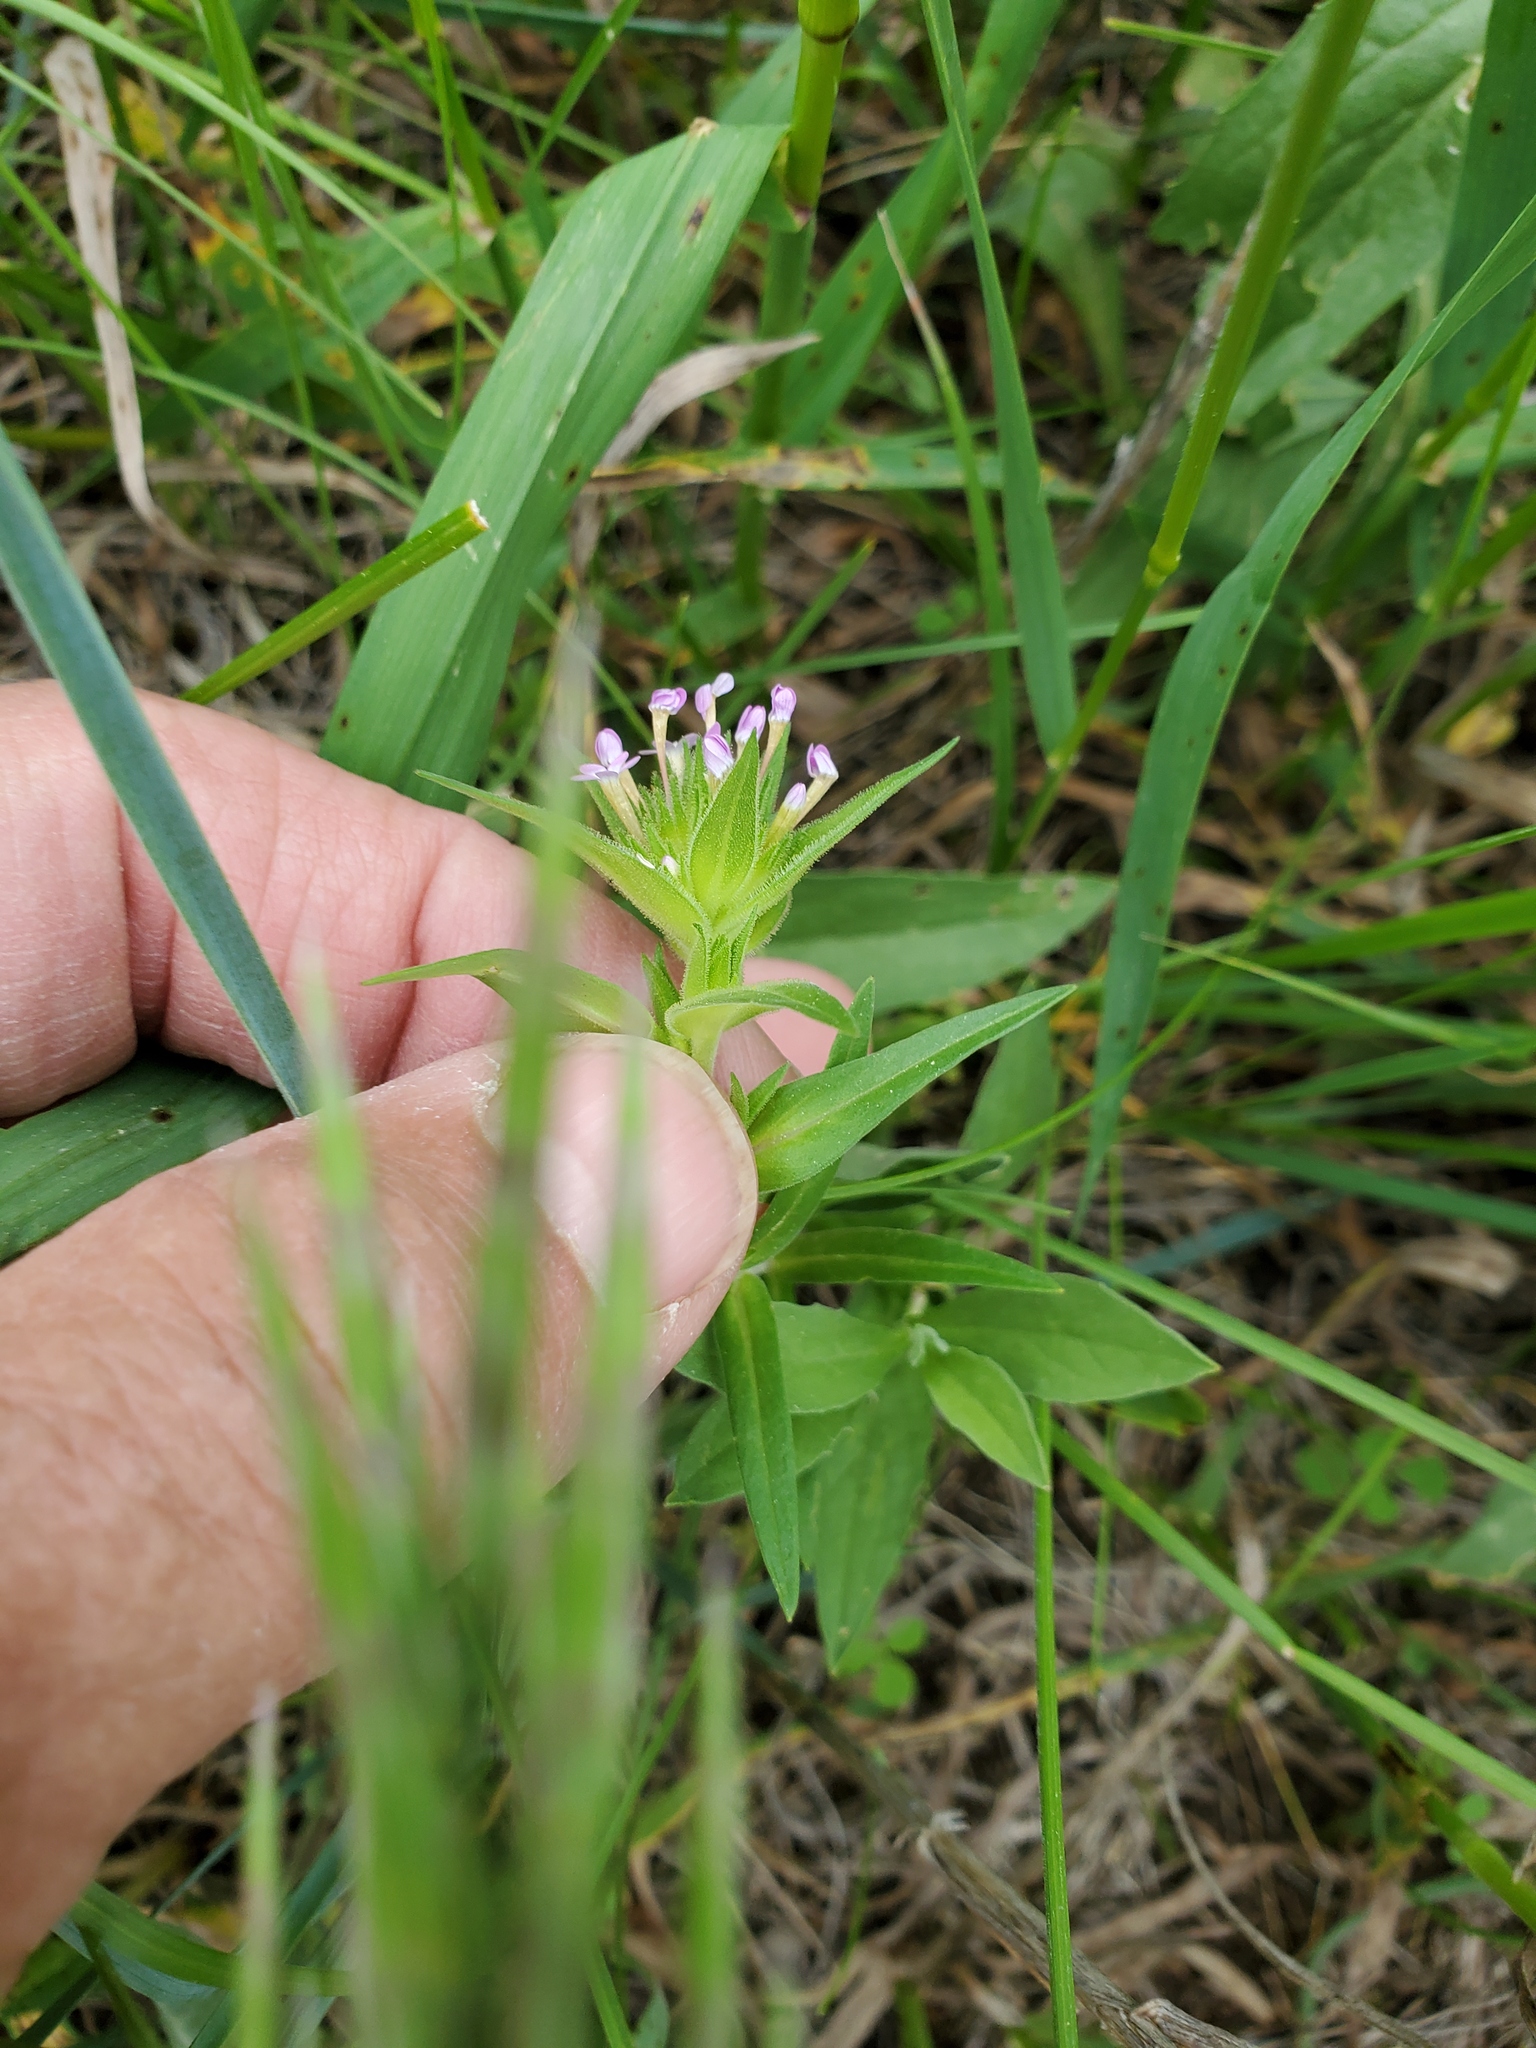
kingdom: Plantae
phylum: Tracheophyta
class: Magnoliopsida
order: Ericales
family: Polemoniaceae
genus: Collomia
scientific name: Collomia linearis
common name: Tiny trumpet
